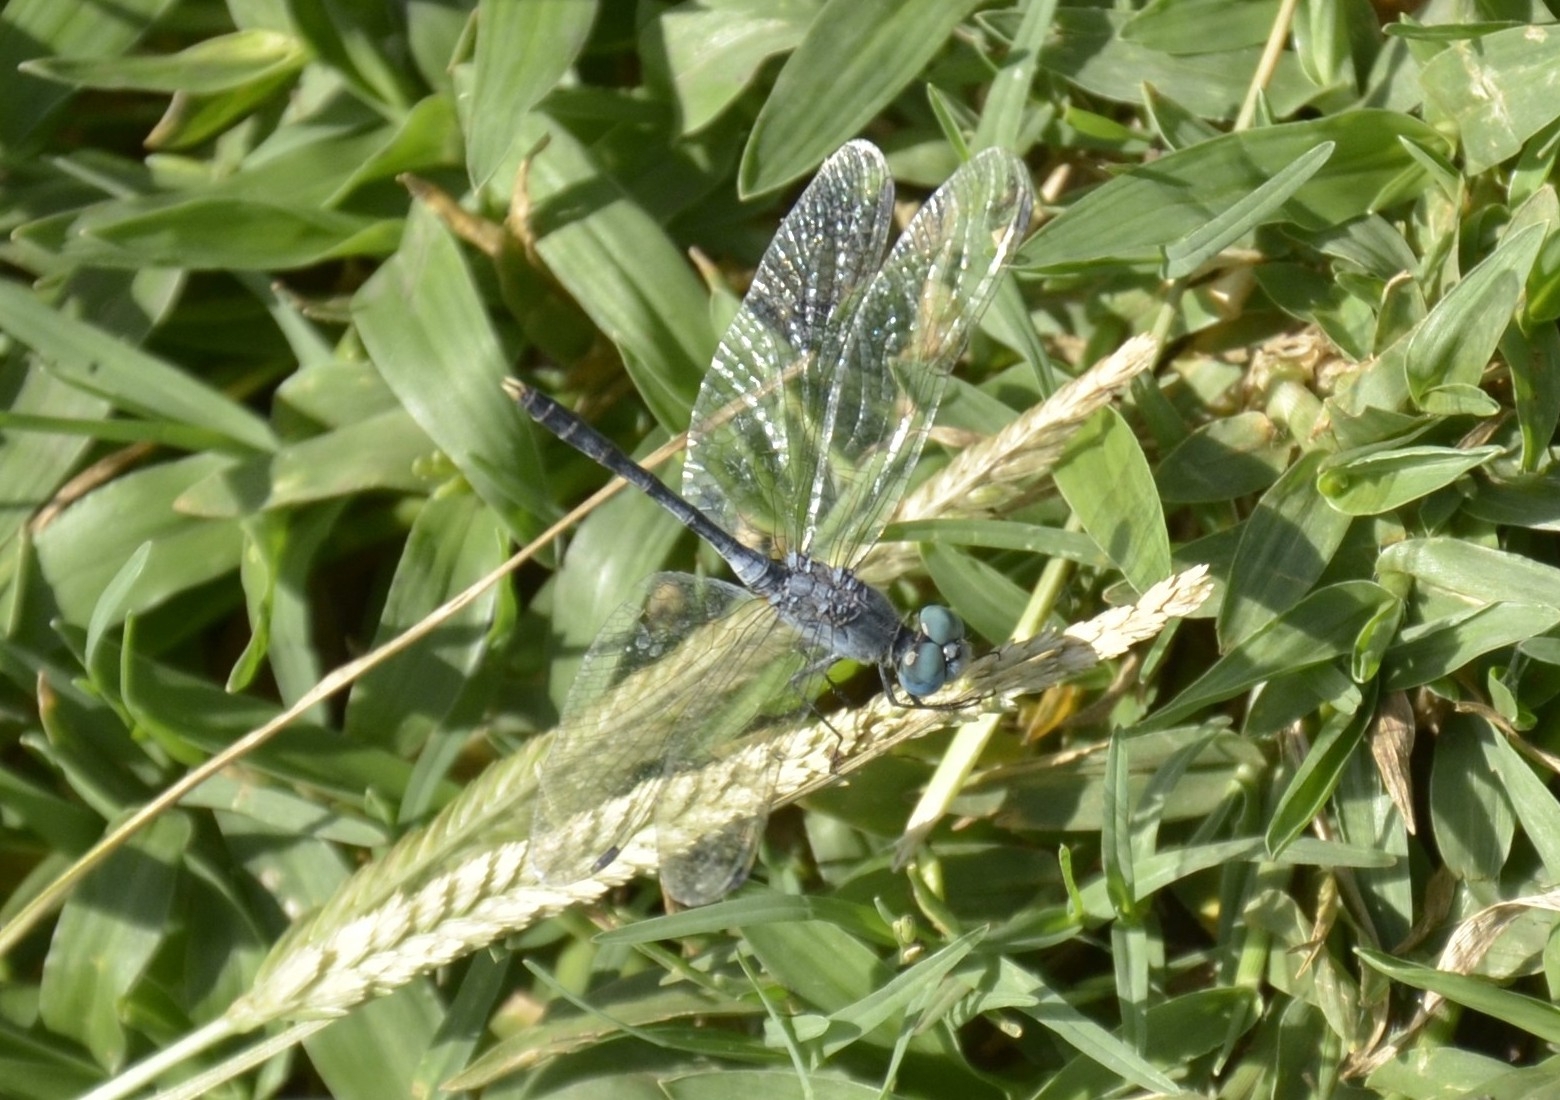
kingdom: Animalia
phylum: Arthropoda
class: Insecta
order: Odonata
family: Libellulidae
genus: Diplacodes
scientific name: Diplacodes trivialis
